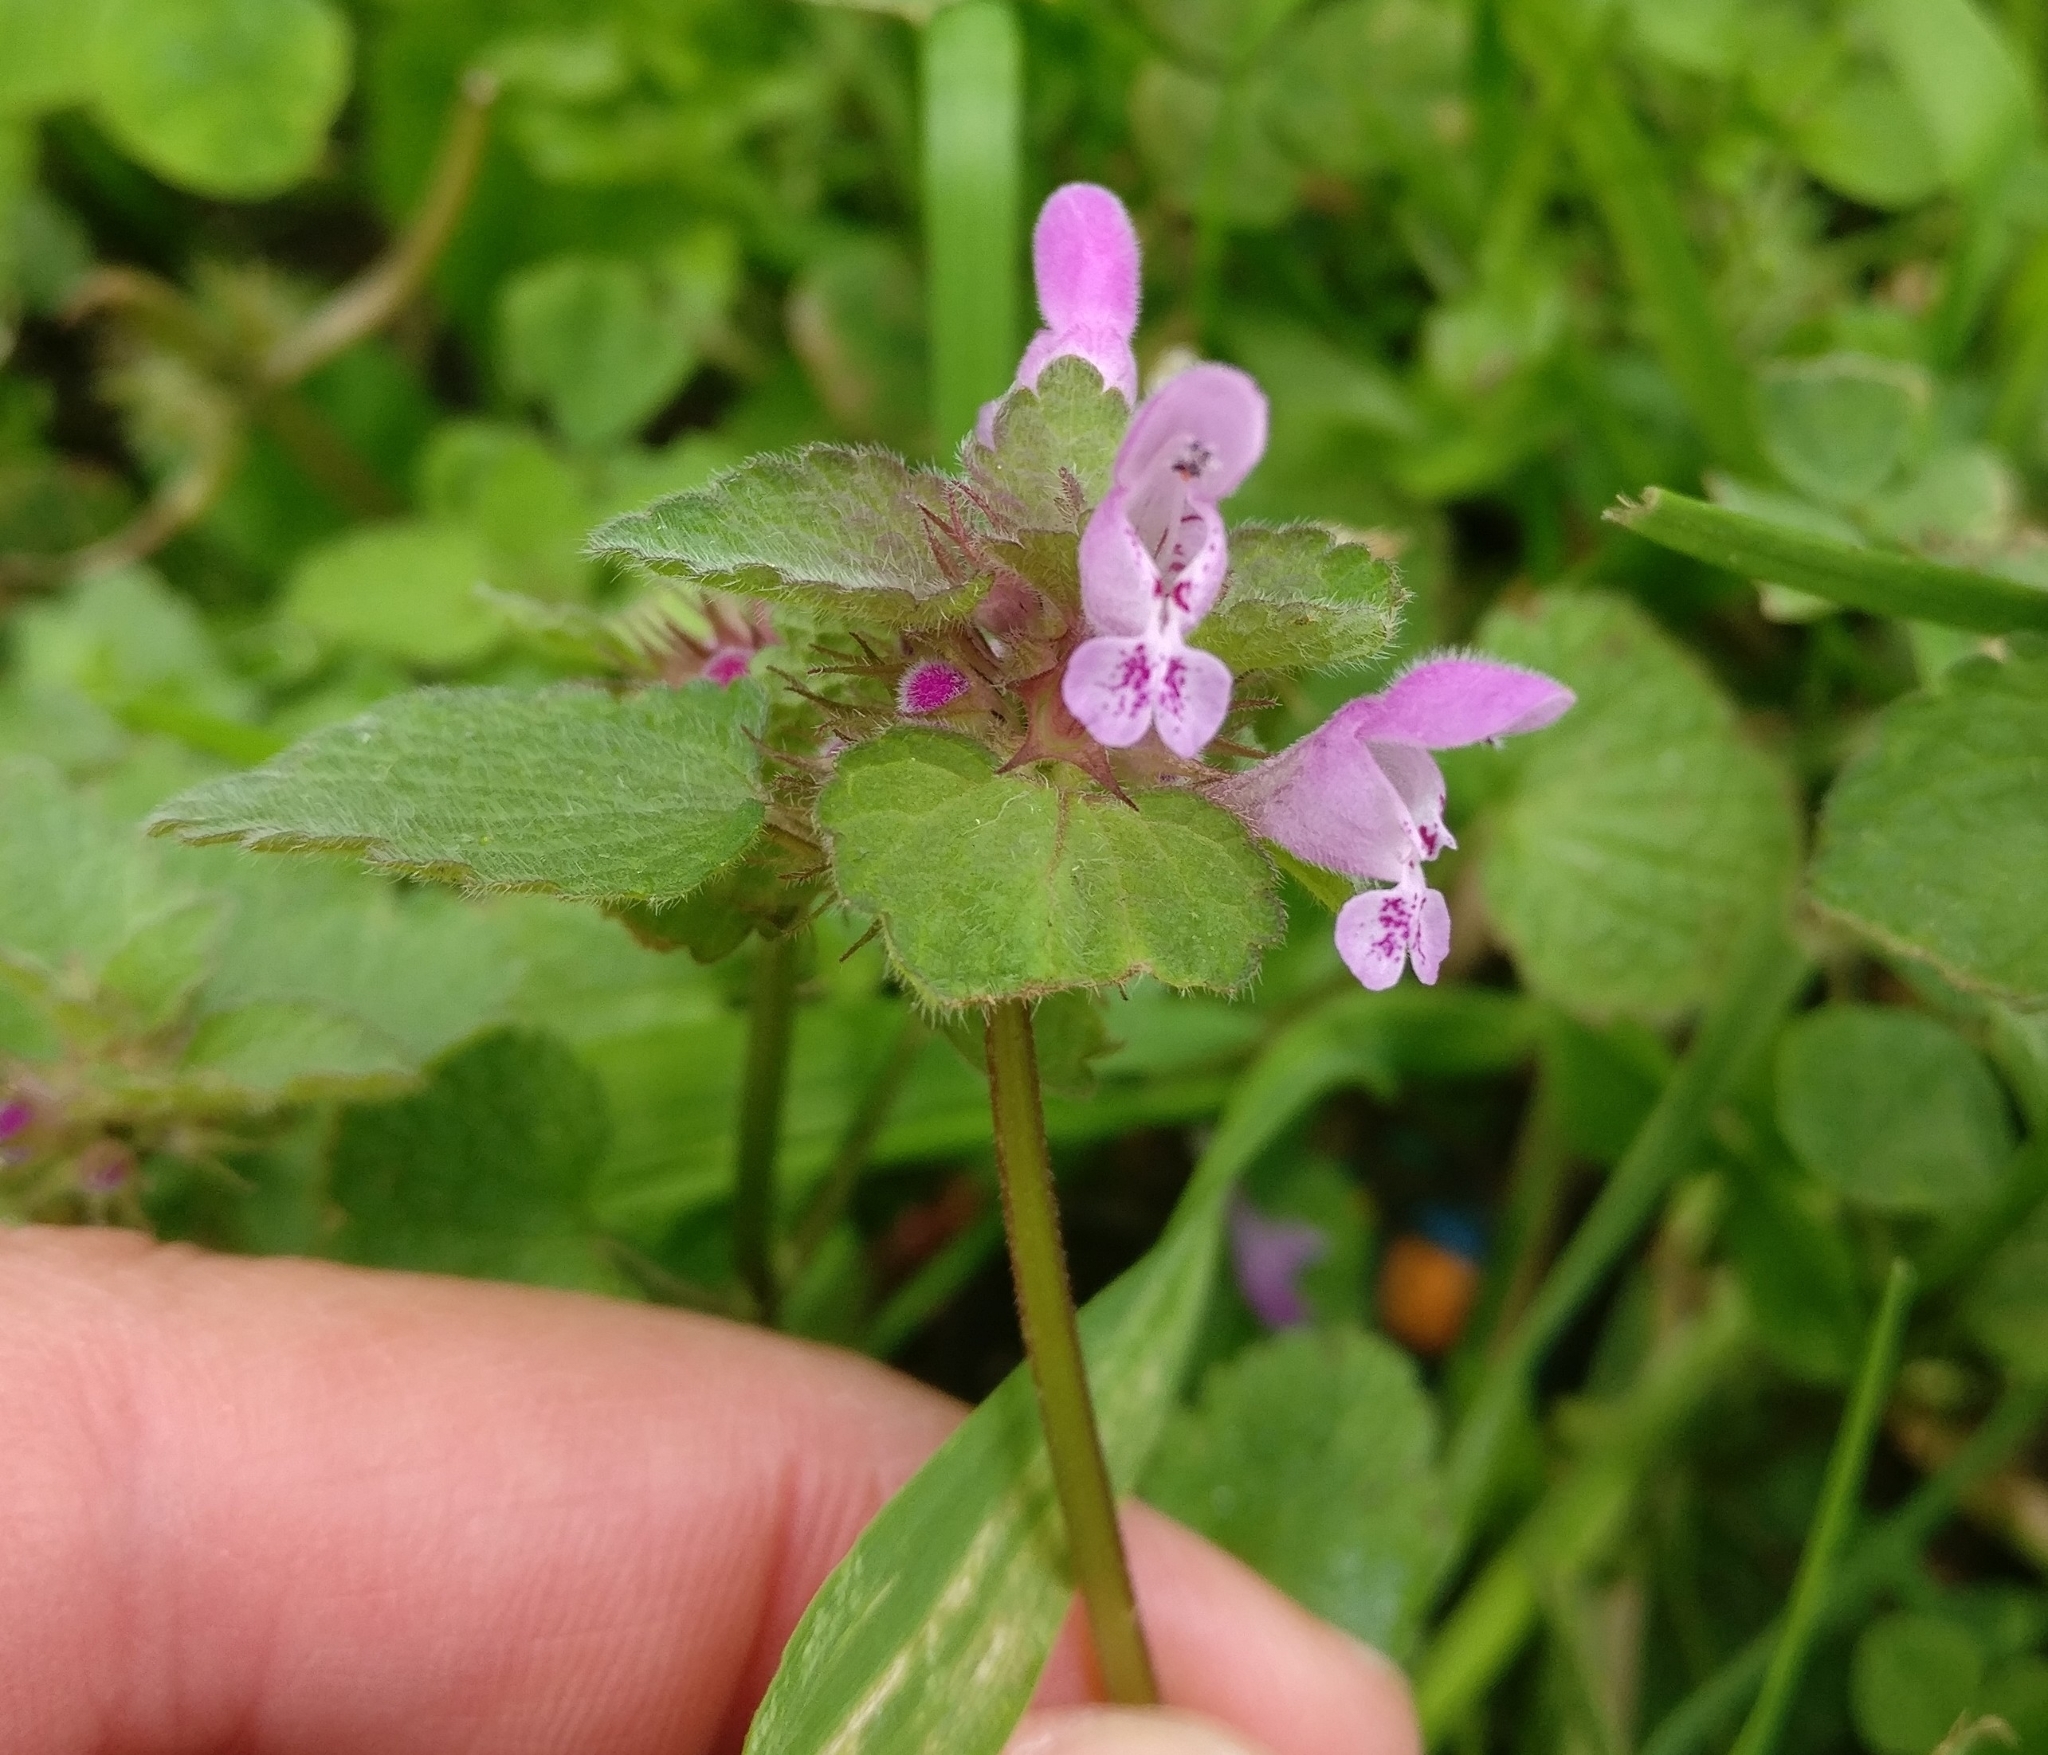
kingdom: Plantae
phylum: Tracheophyta
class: Magnoliopsida
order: Lamiales
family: Lamiaceae
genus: Lamium
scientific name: Lamium purpureum
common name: Red dead-nettle
